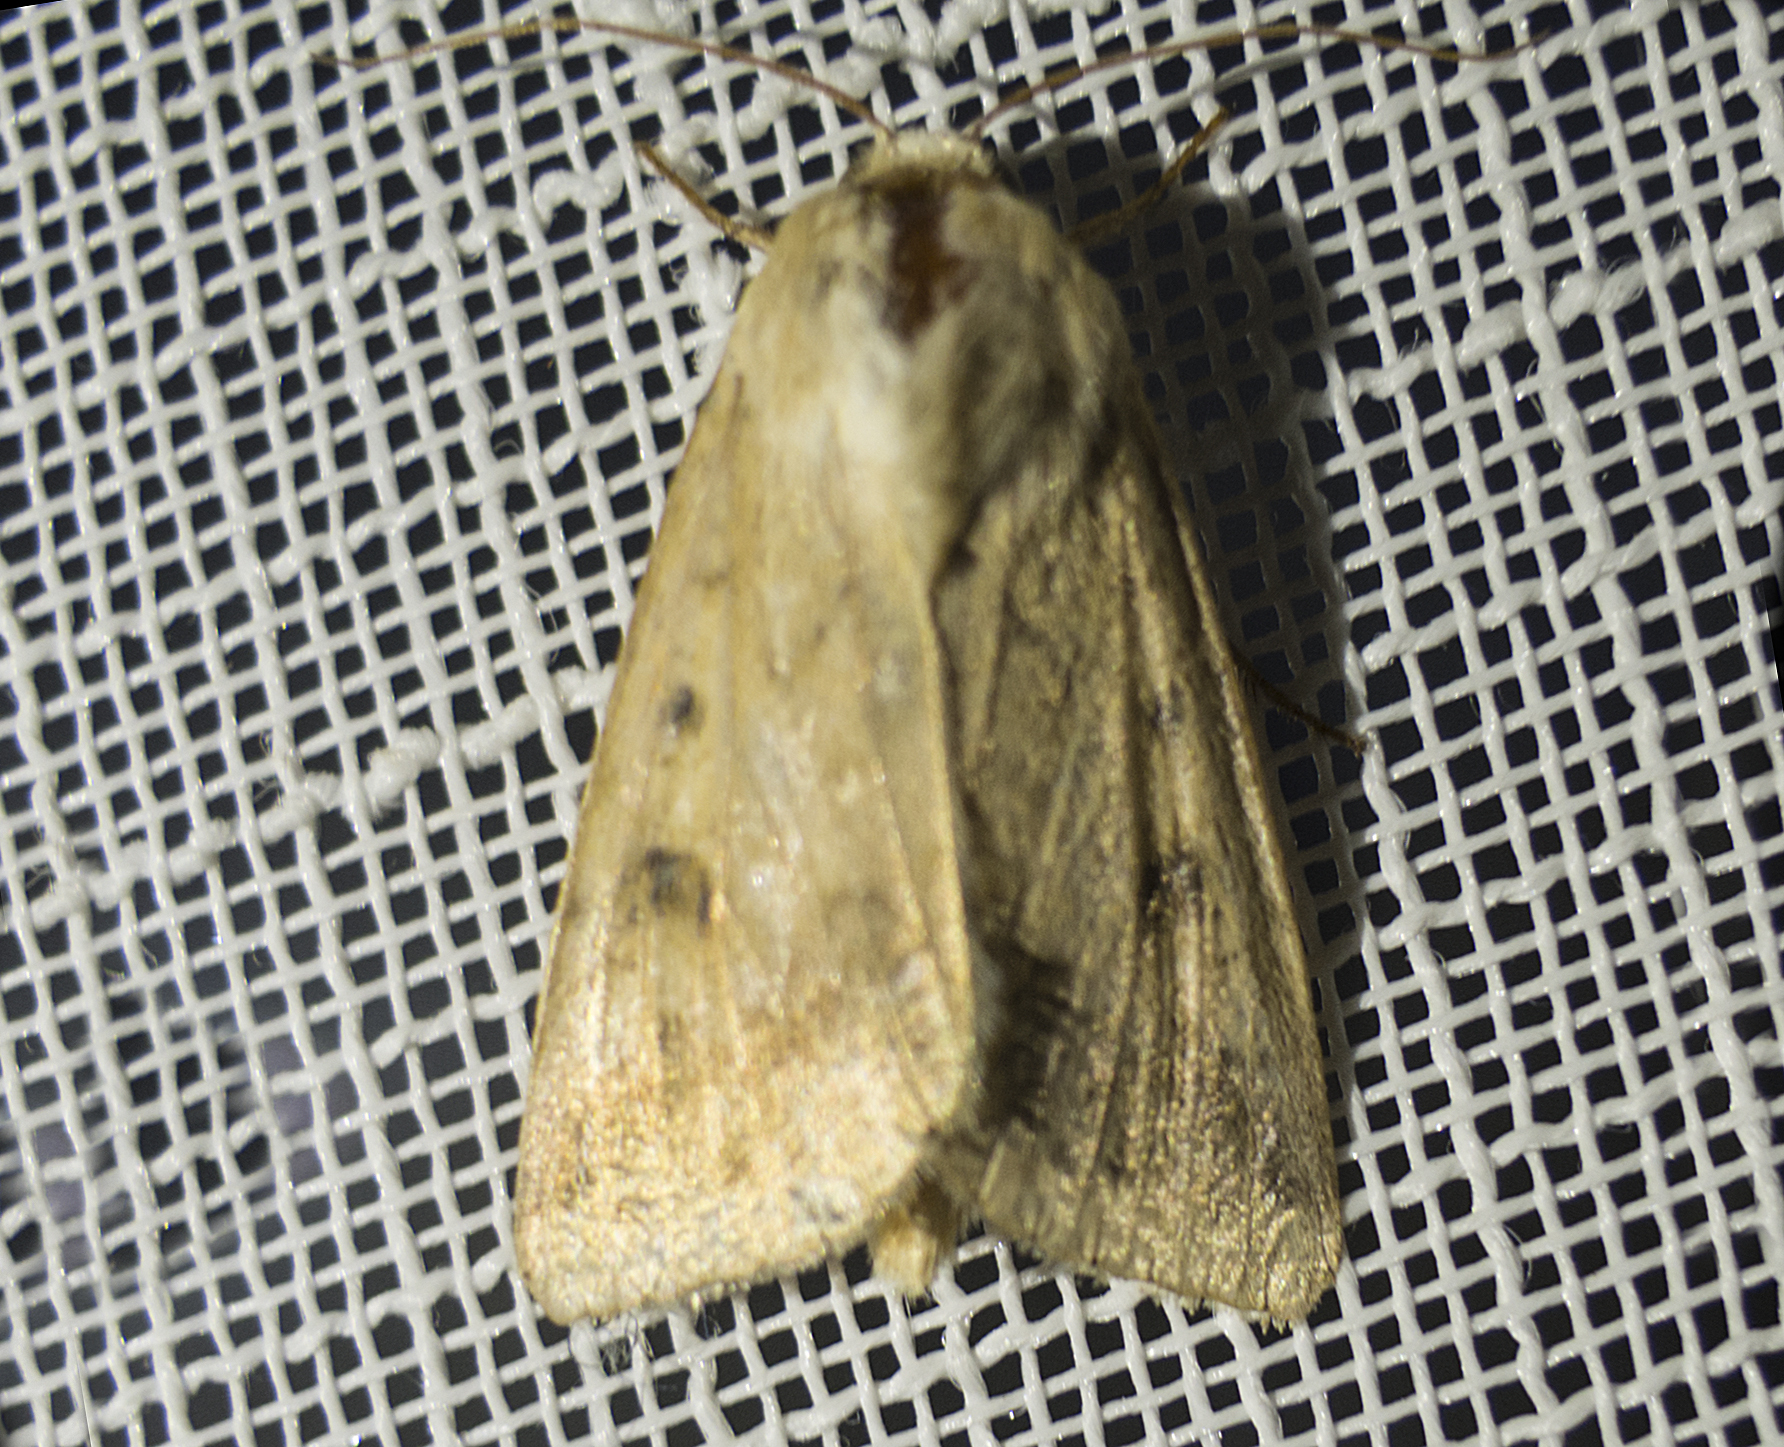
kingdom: Animalia
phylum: Arthropoda
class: Insecta
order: Lepidoptera
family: Noctuidae
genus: Helicoverpa
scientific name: Helicoverpa armigera
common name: Cotton bollworm
